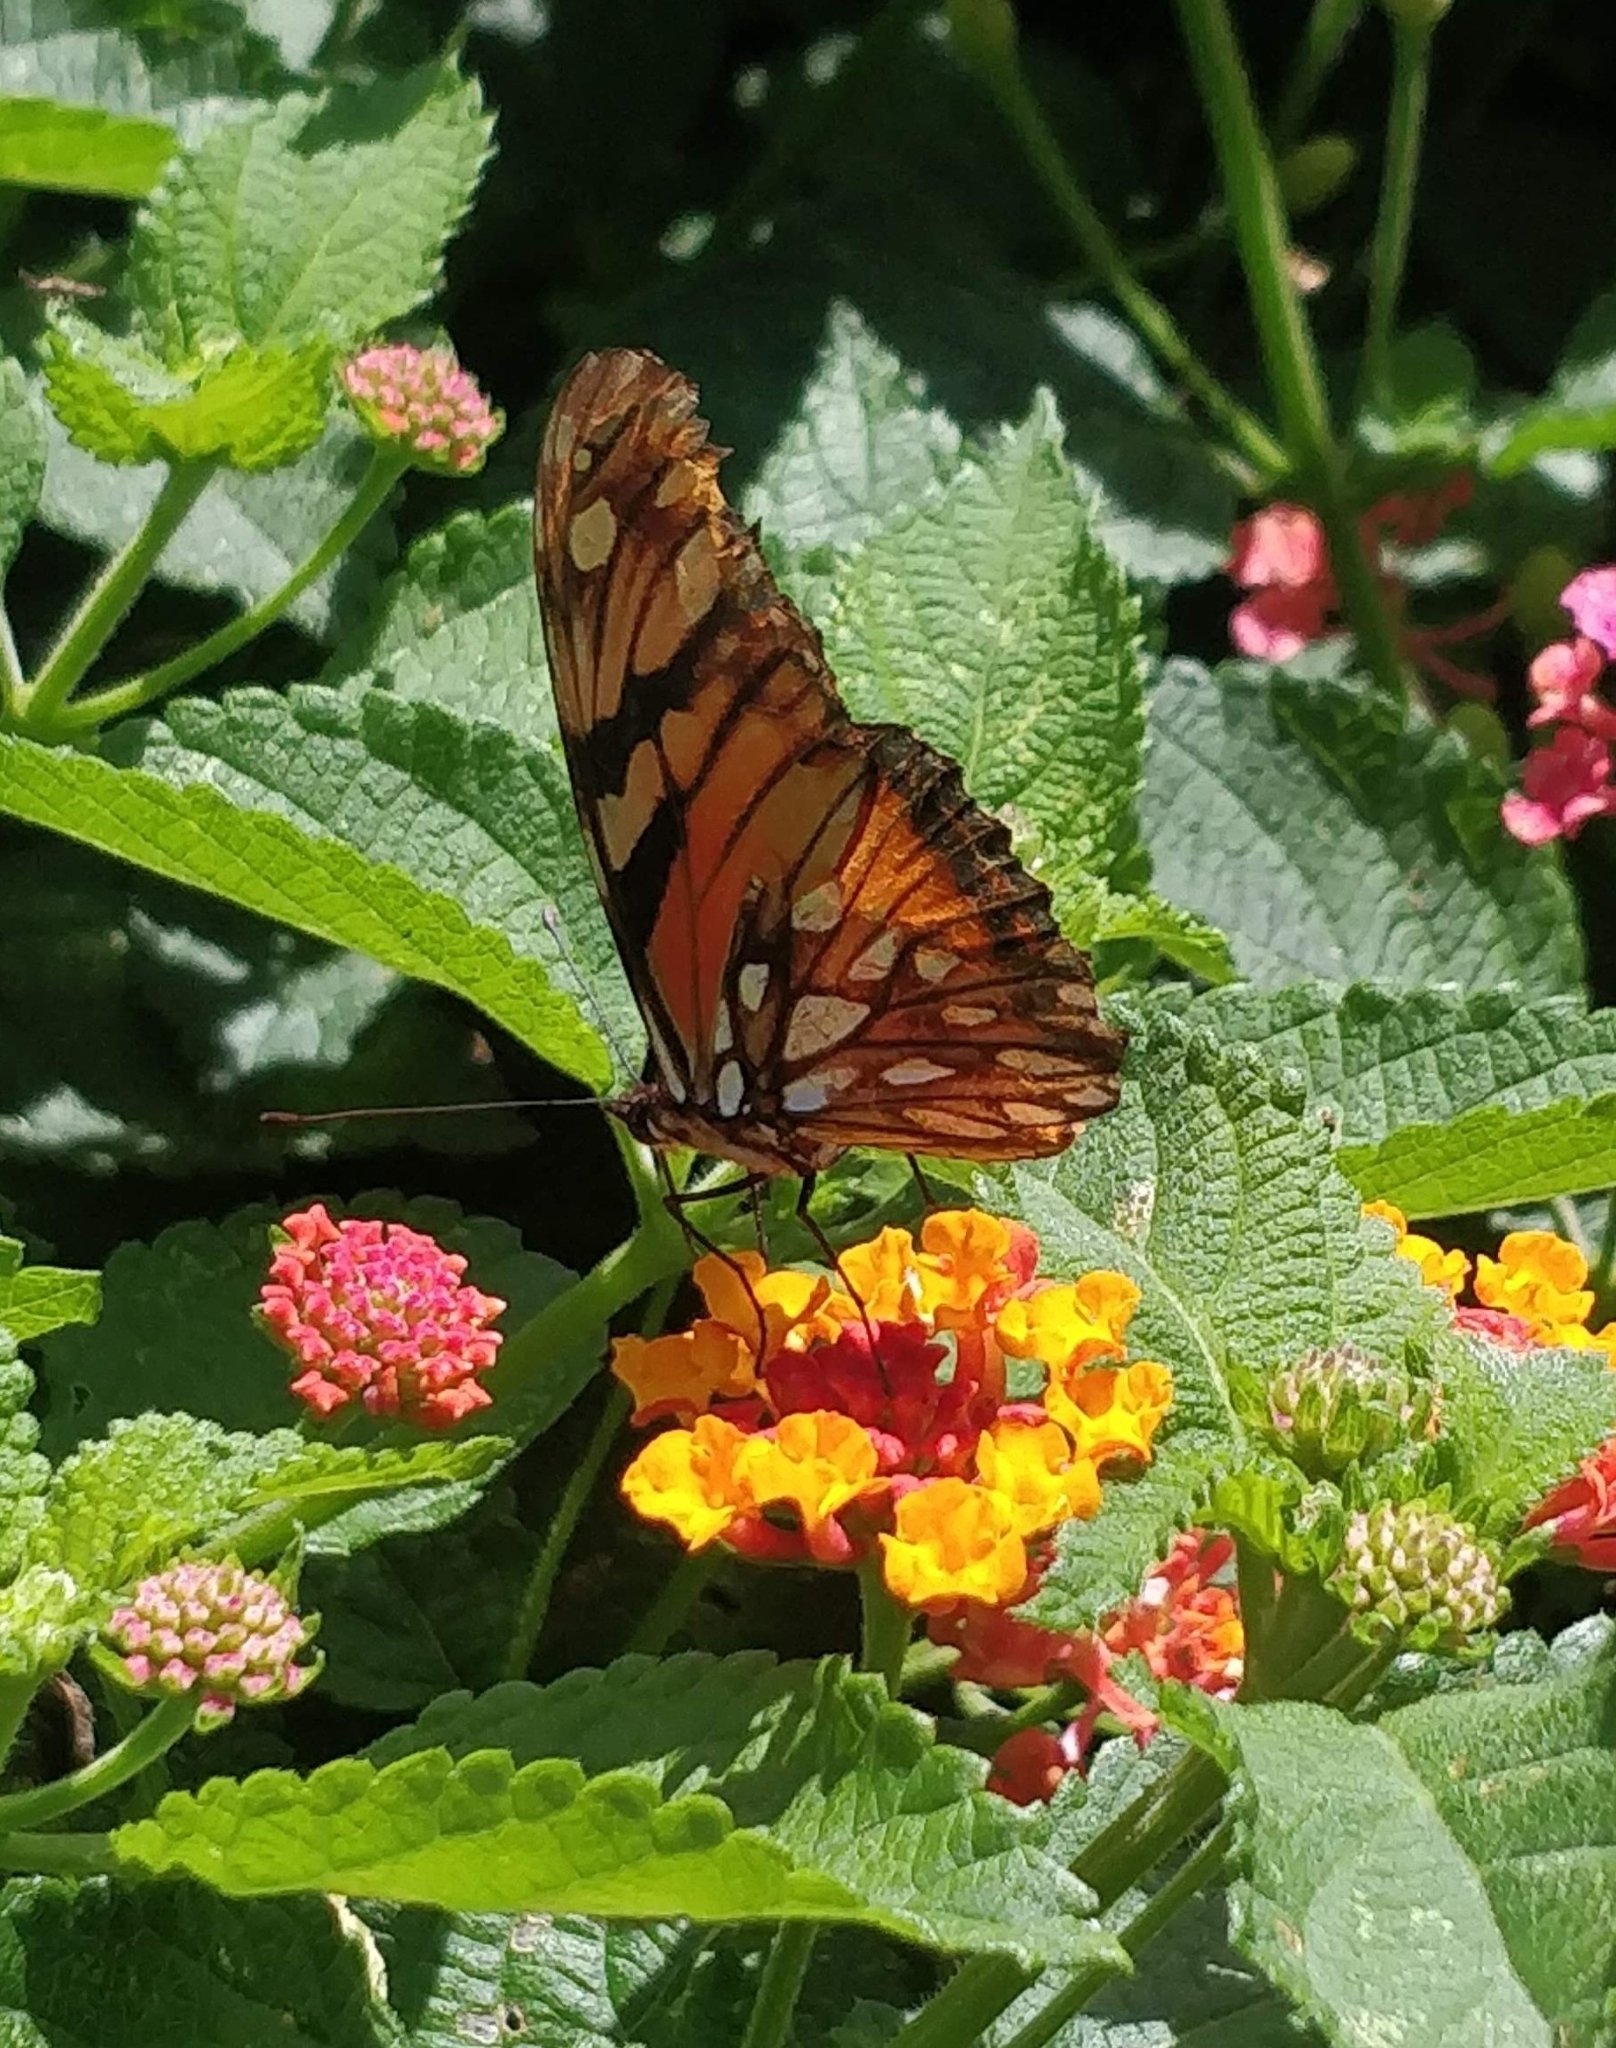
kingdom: Animalia
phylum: Arthropoda
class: Insecta
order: Lepidoptera
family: Nymphalidae
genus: Dione
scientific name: Dione juno
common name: Juno silverspot
